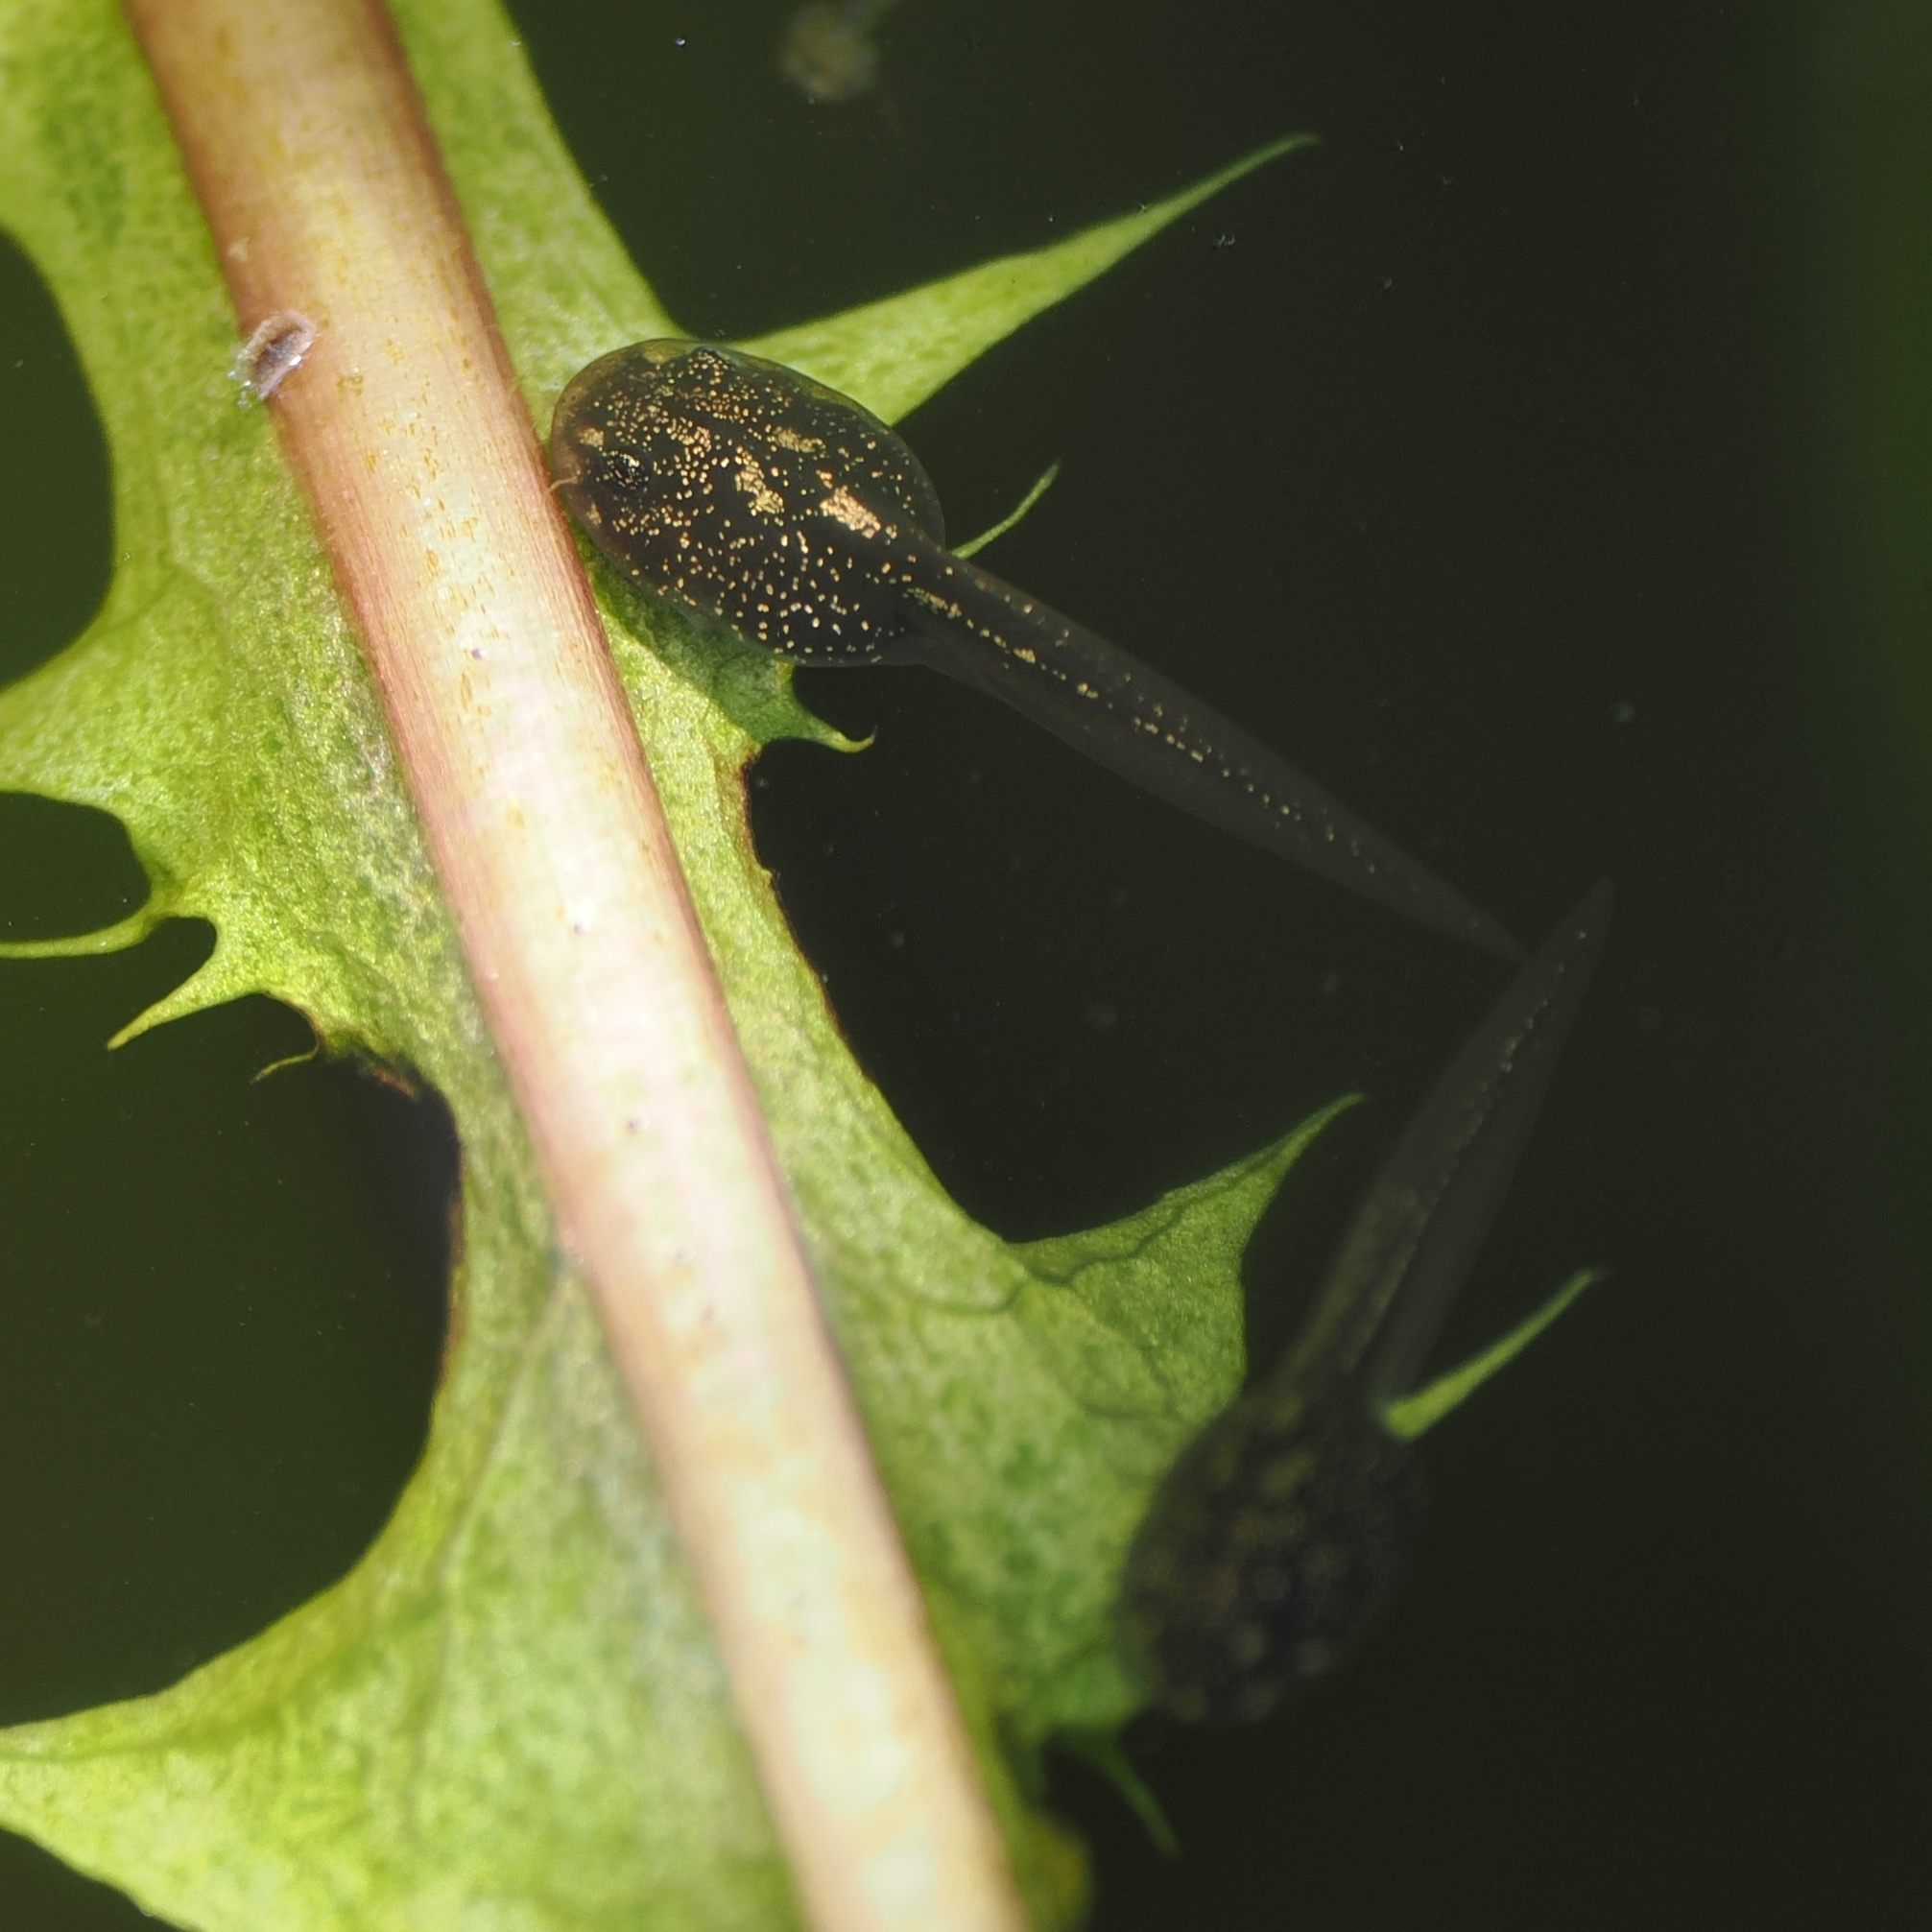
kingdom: Animalia
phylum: Chordata
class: Amphibia
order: Anura
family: Ranidae
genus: Rana
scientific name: Rana latastei
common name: Italian agile frog
